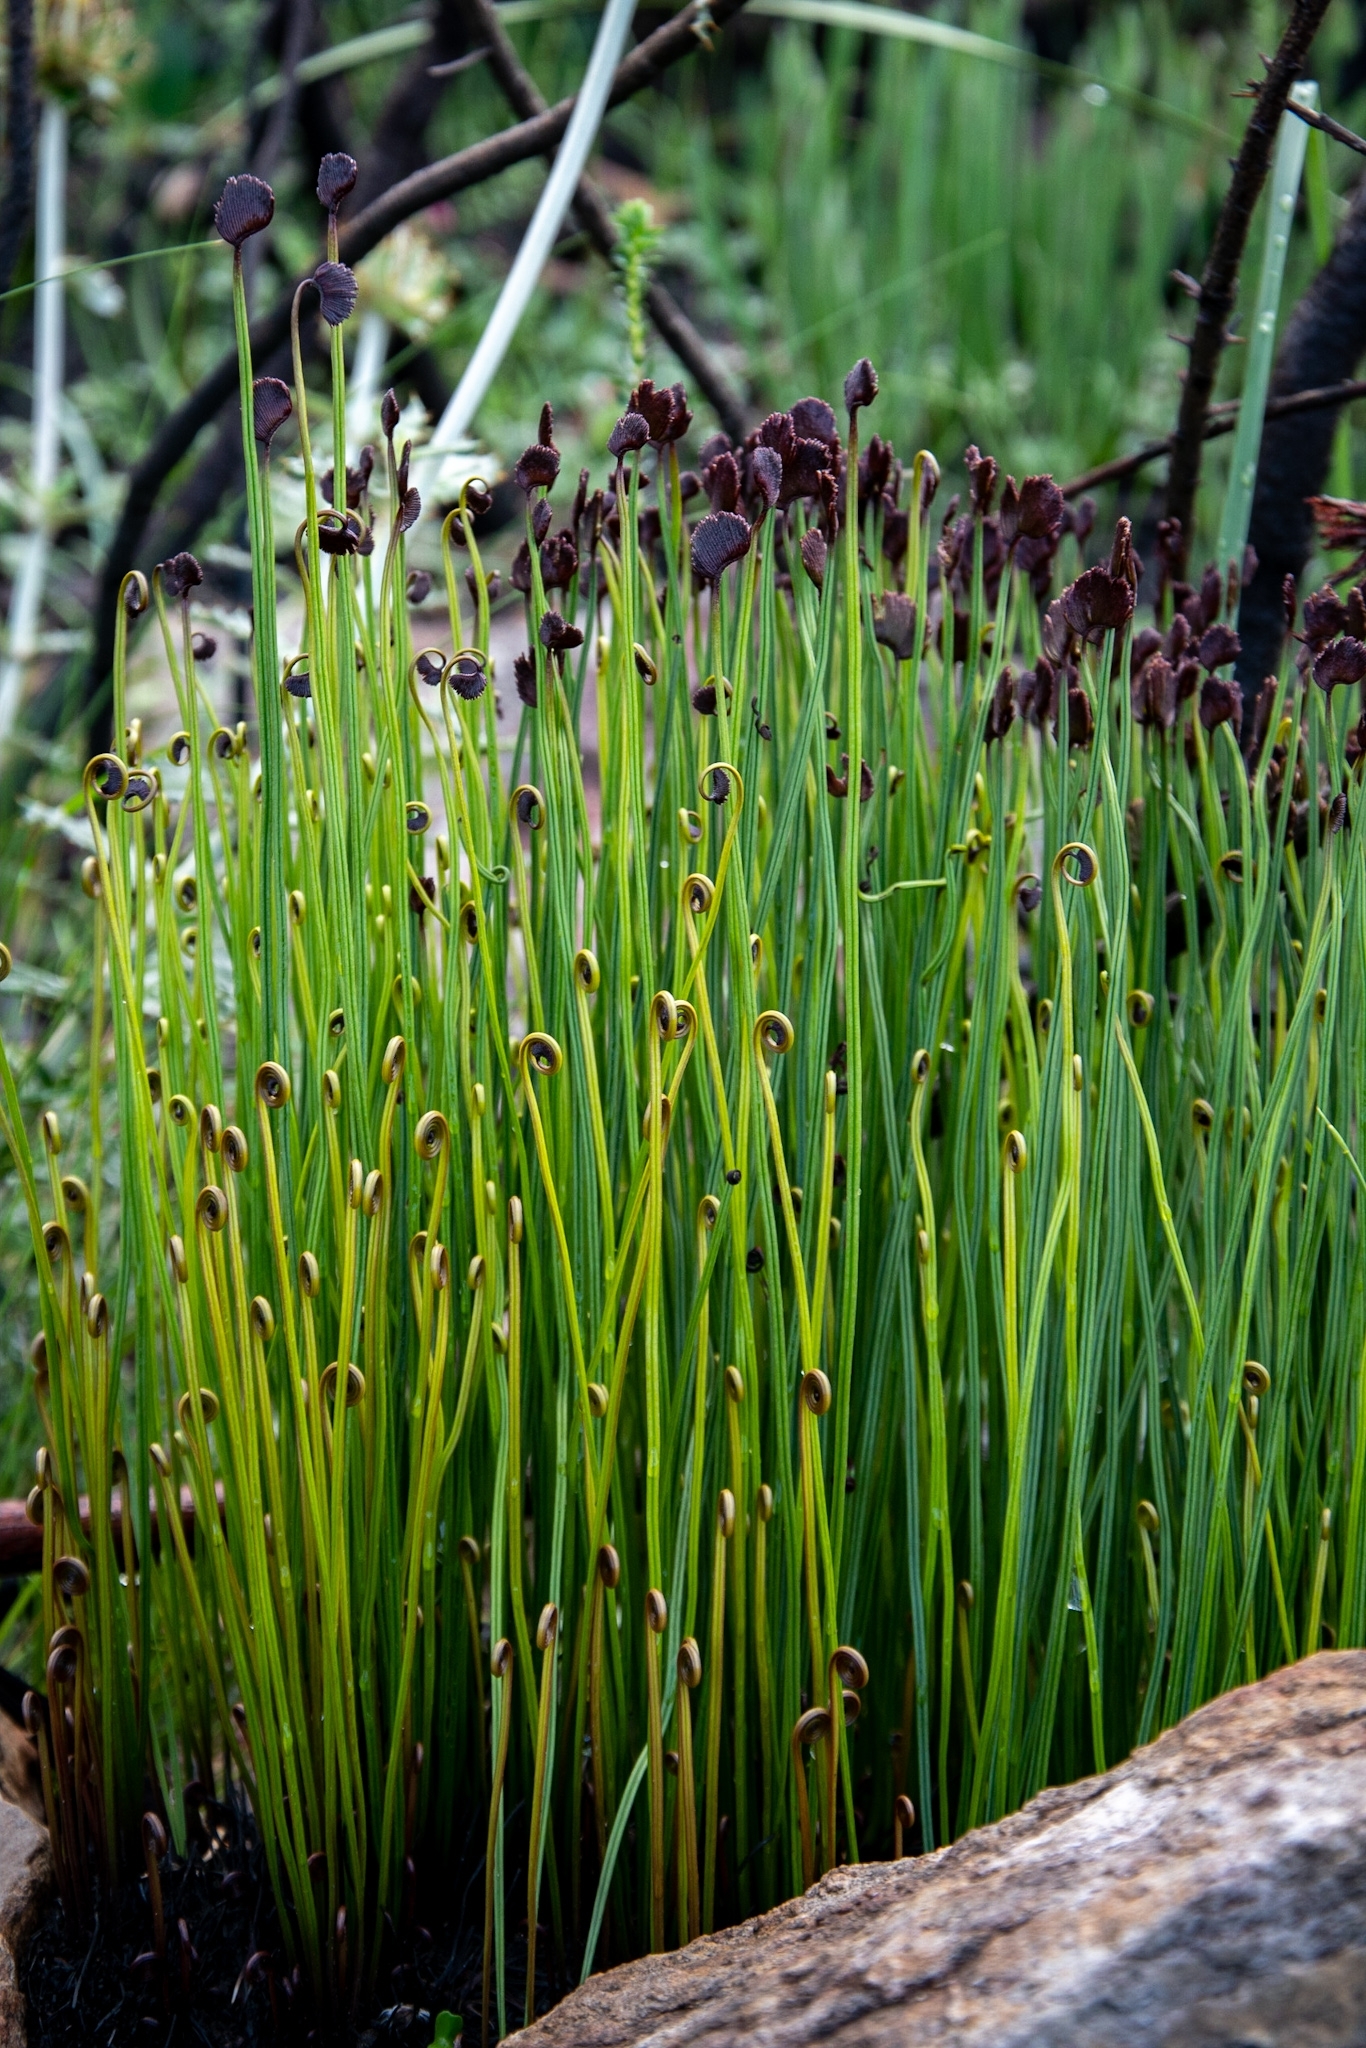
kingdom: Plantae
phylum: Tracheophyta
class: Polypodiopsida
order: Schizaeales
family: Schizaeaceae
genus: Schizaea
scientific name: Schizaea pectinata
